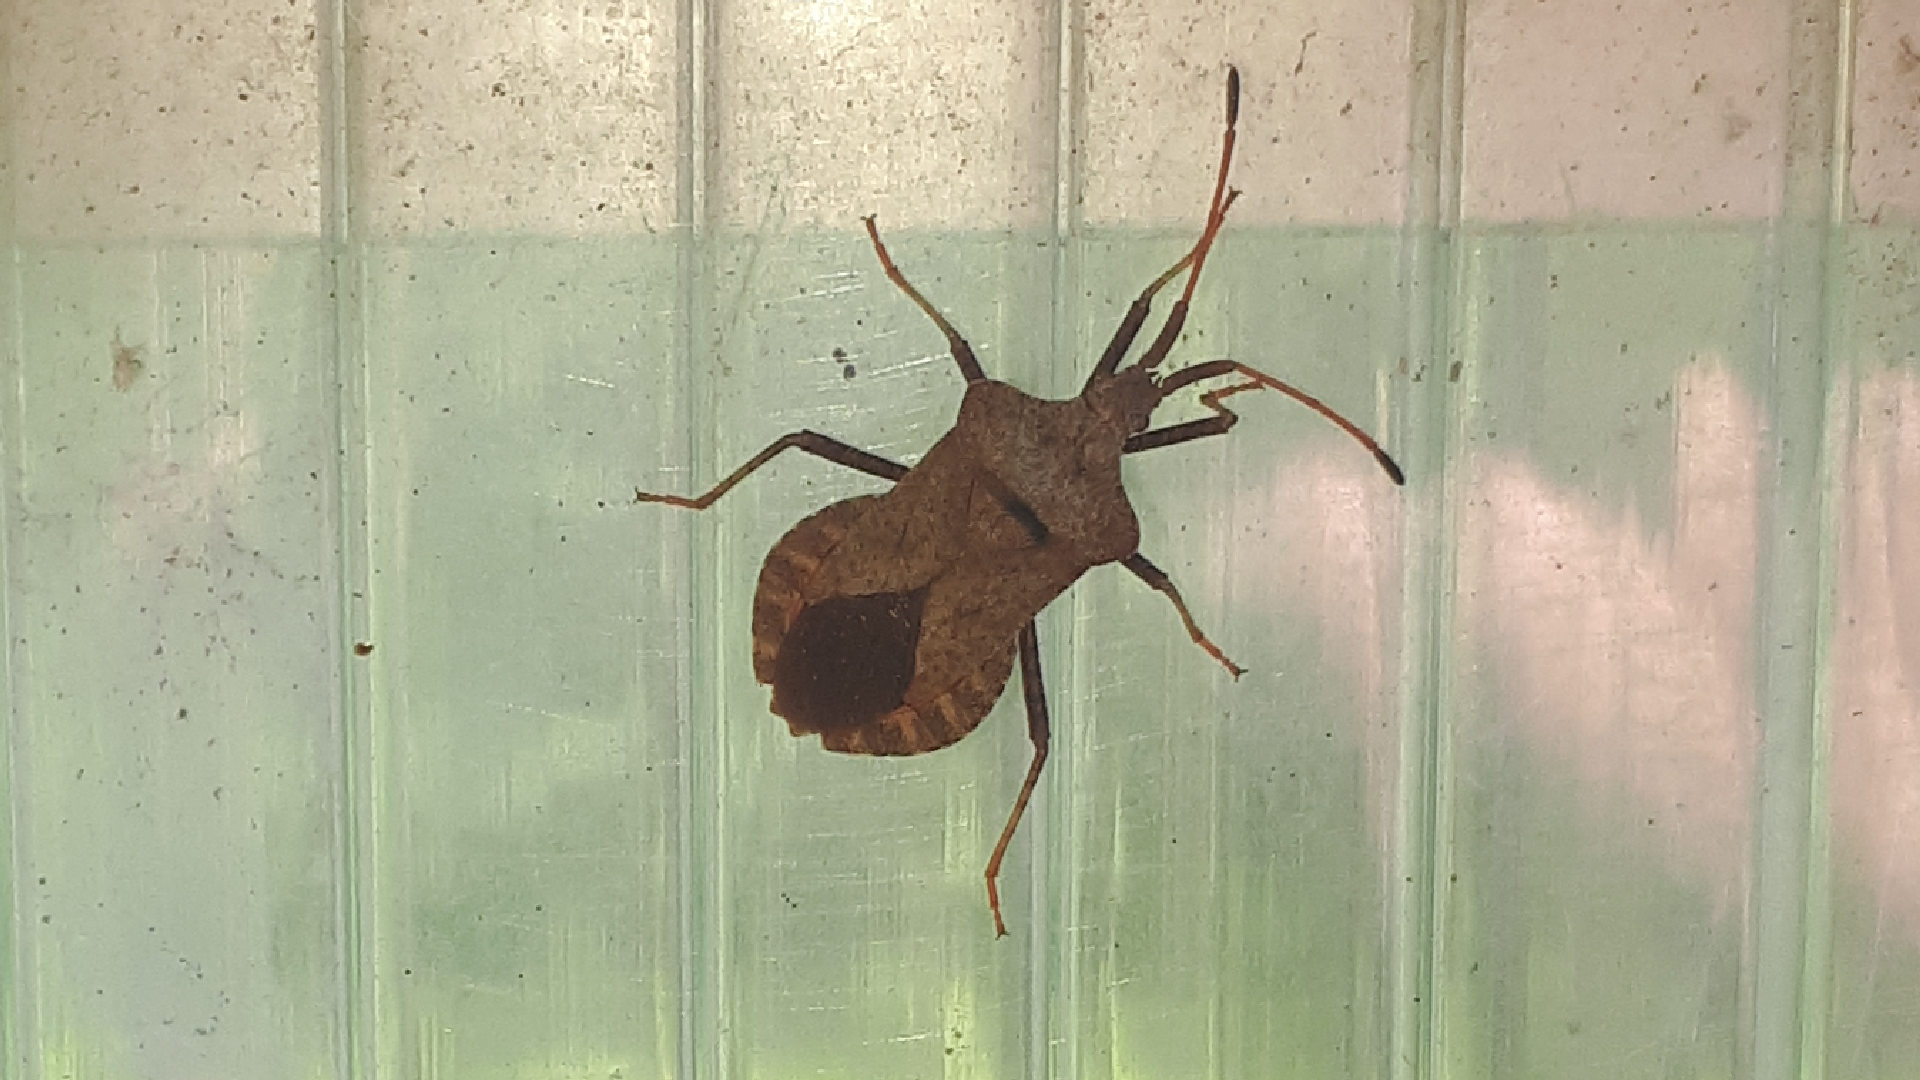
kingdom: Animalia
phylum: Arthropoda
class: Insecta
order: Hemiptera
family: Coreidae
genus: Coreus
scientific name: Coreus marginatus
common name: Dock bug
